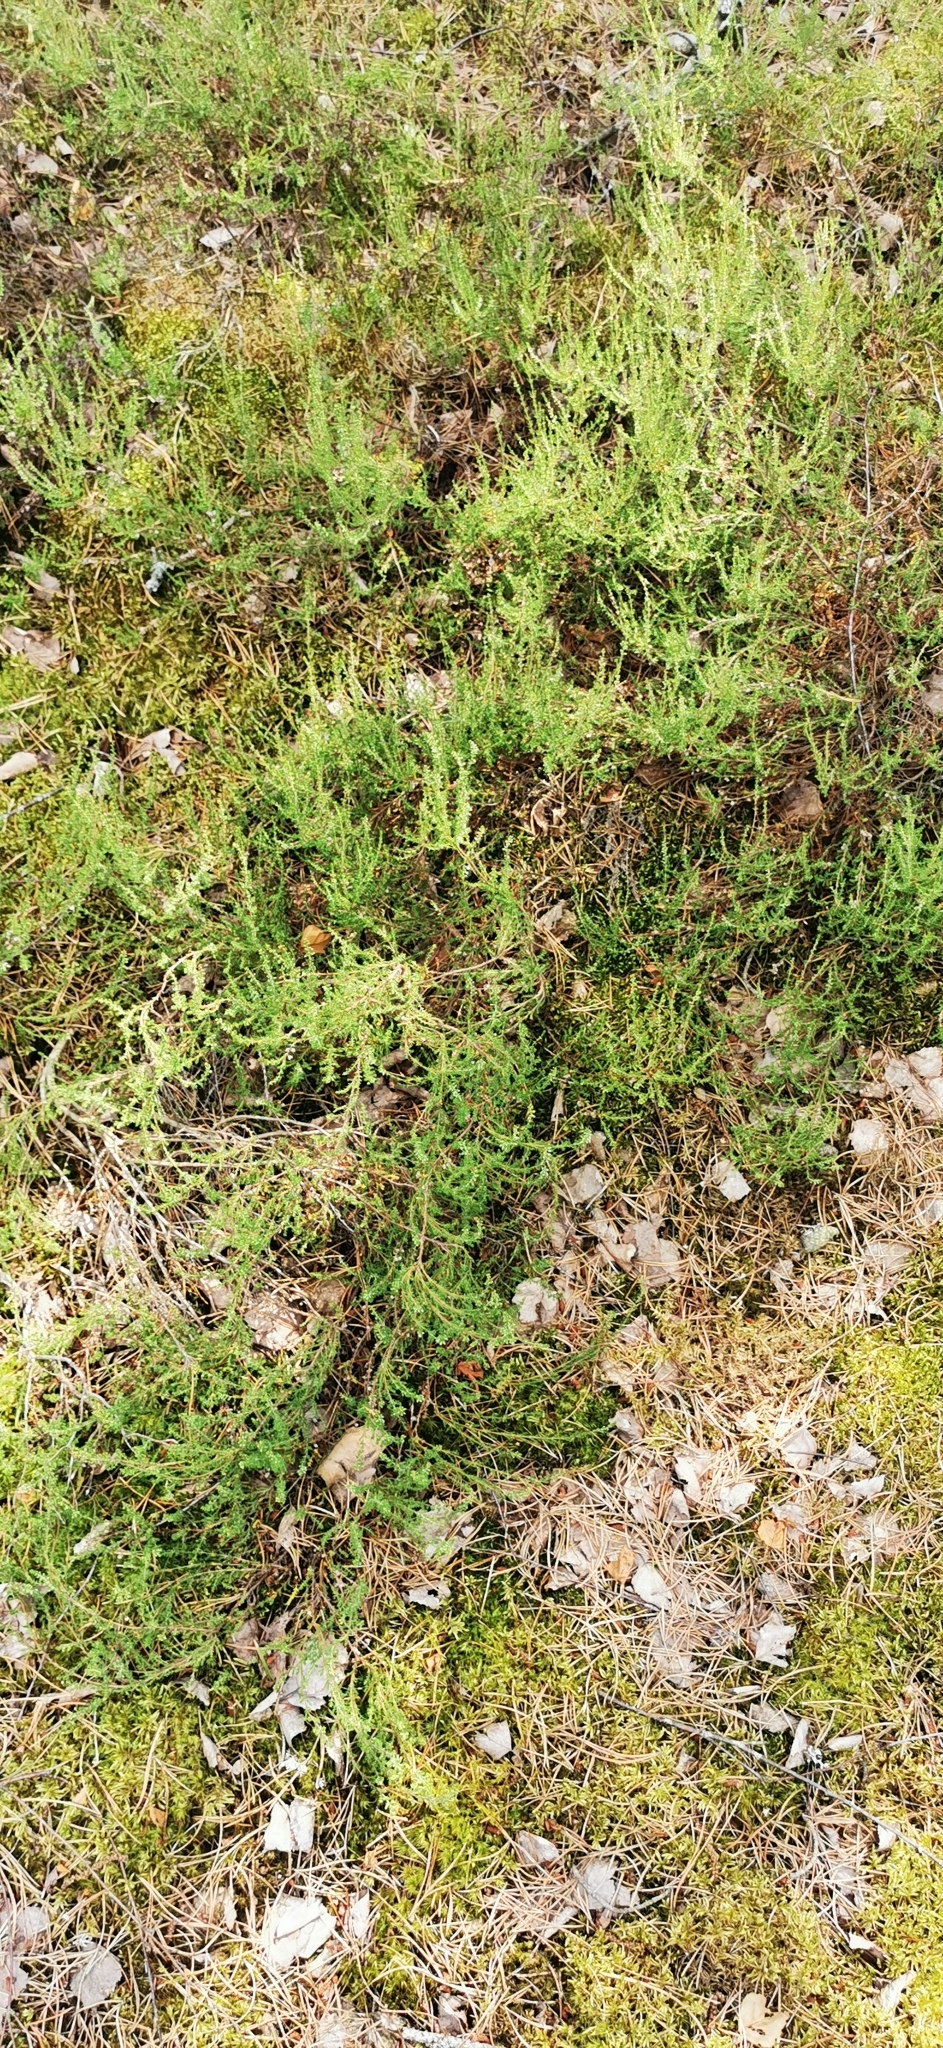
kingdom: Plantae
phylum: Tracheophyta
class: Magnoliopsida
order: Ericales
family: Ericaceae
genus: Calluna
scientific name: Calluna vulgaris
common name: Heather
